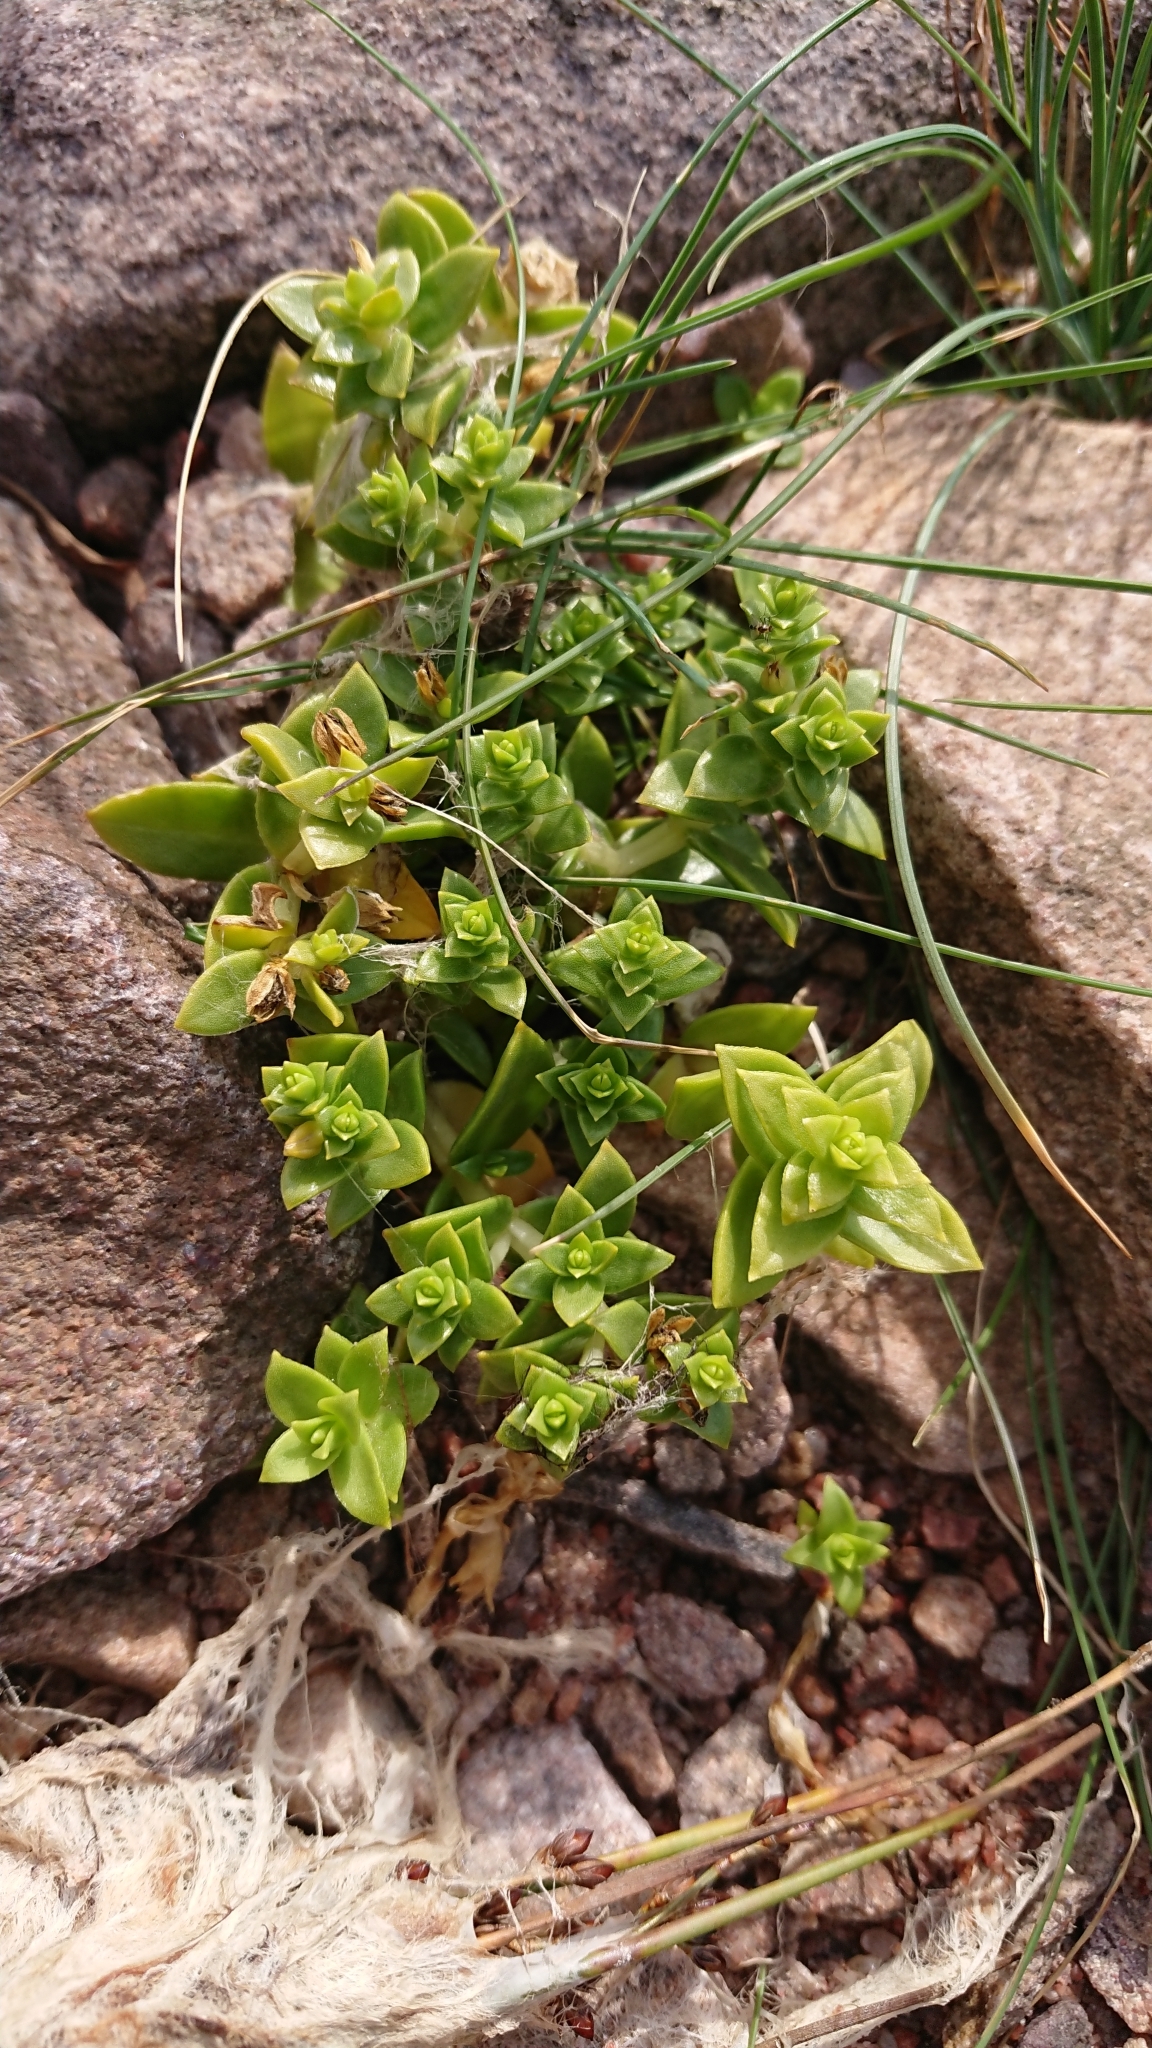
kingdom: Plantae
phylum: Tracheophyta
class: Magnoliopsida
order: Caryophyllales
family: Caryophyllaceae
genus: Honckenya
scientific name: Honckenya peploides
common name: Sea sandwort
